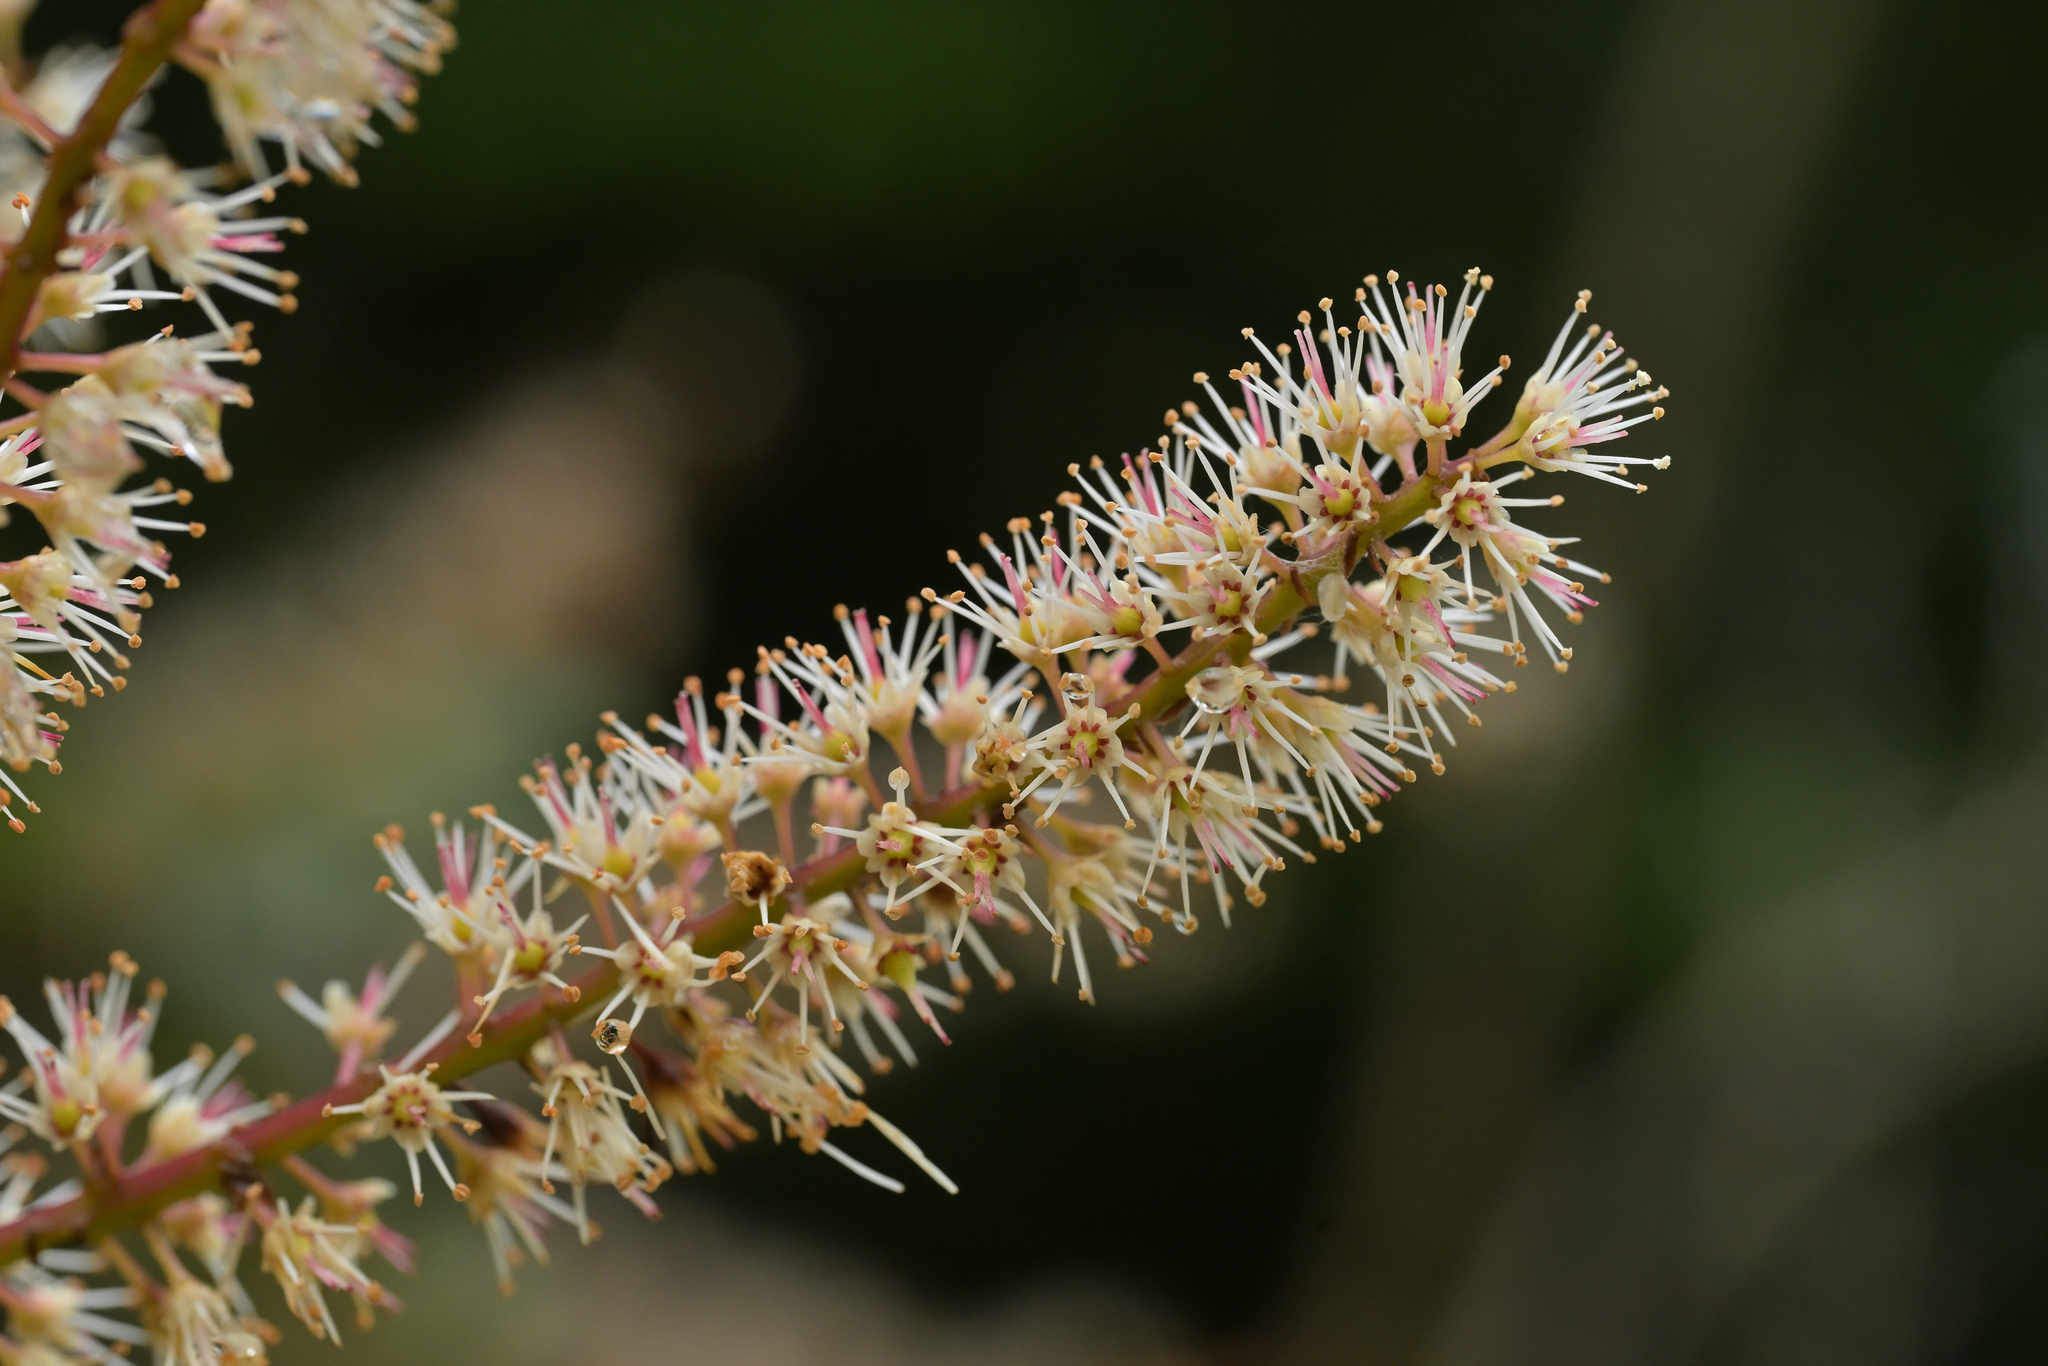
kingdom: Plantae
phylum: Tracheophyta
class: Magnoliopsida
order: Oxalidales
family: Cunoniaceae
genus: Pterophylla
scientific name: Pterophylla racemosa
